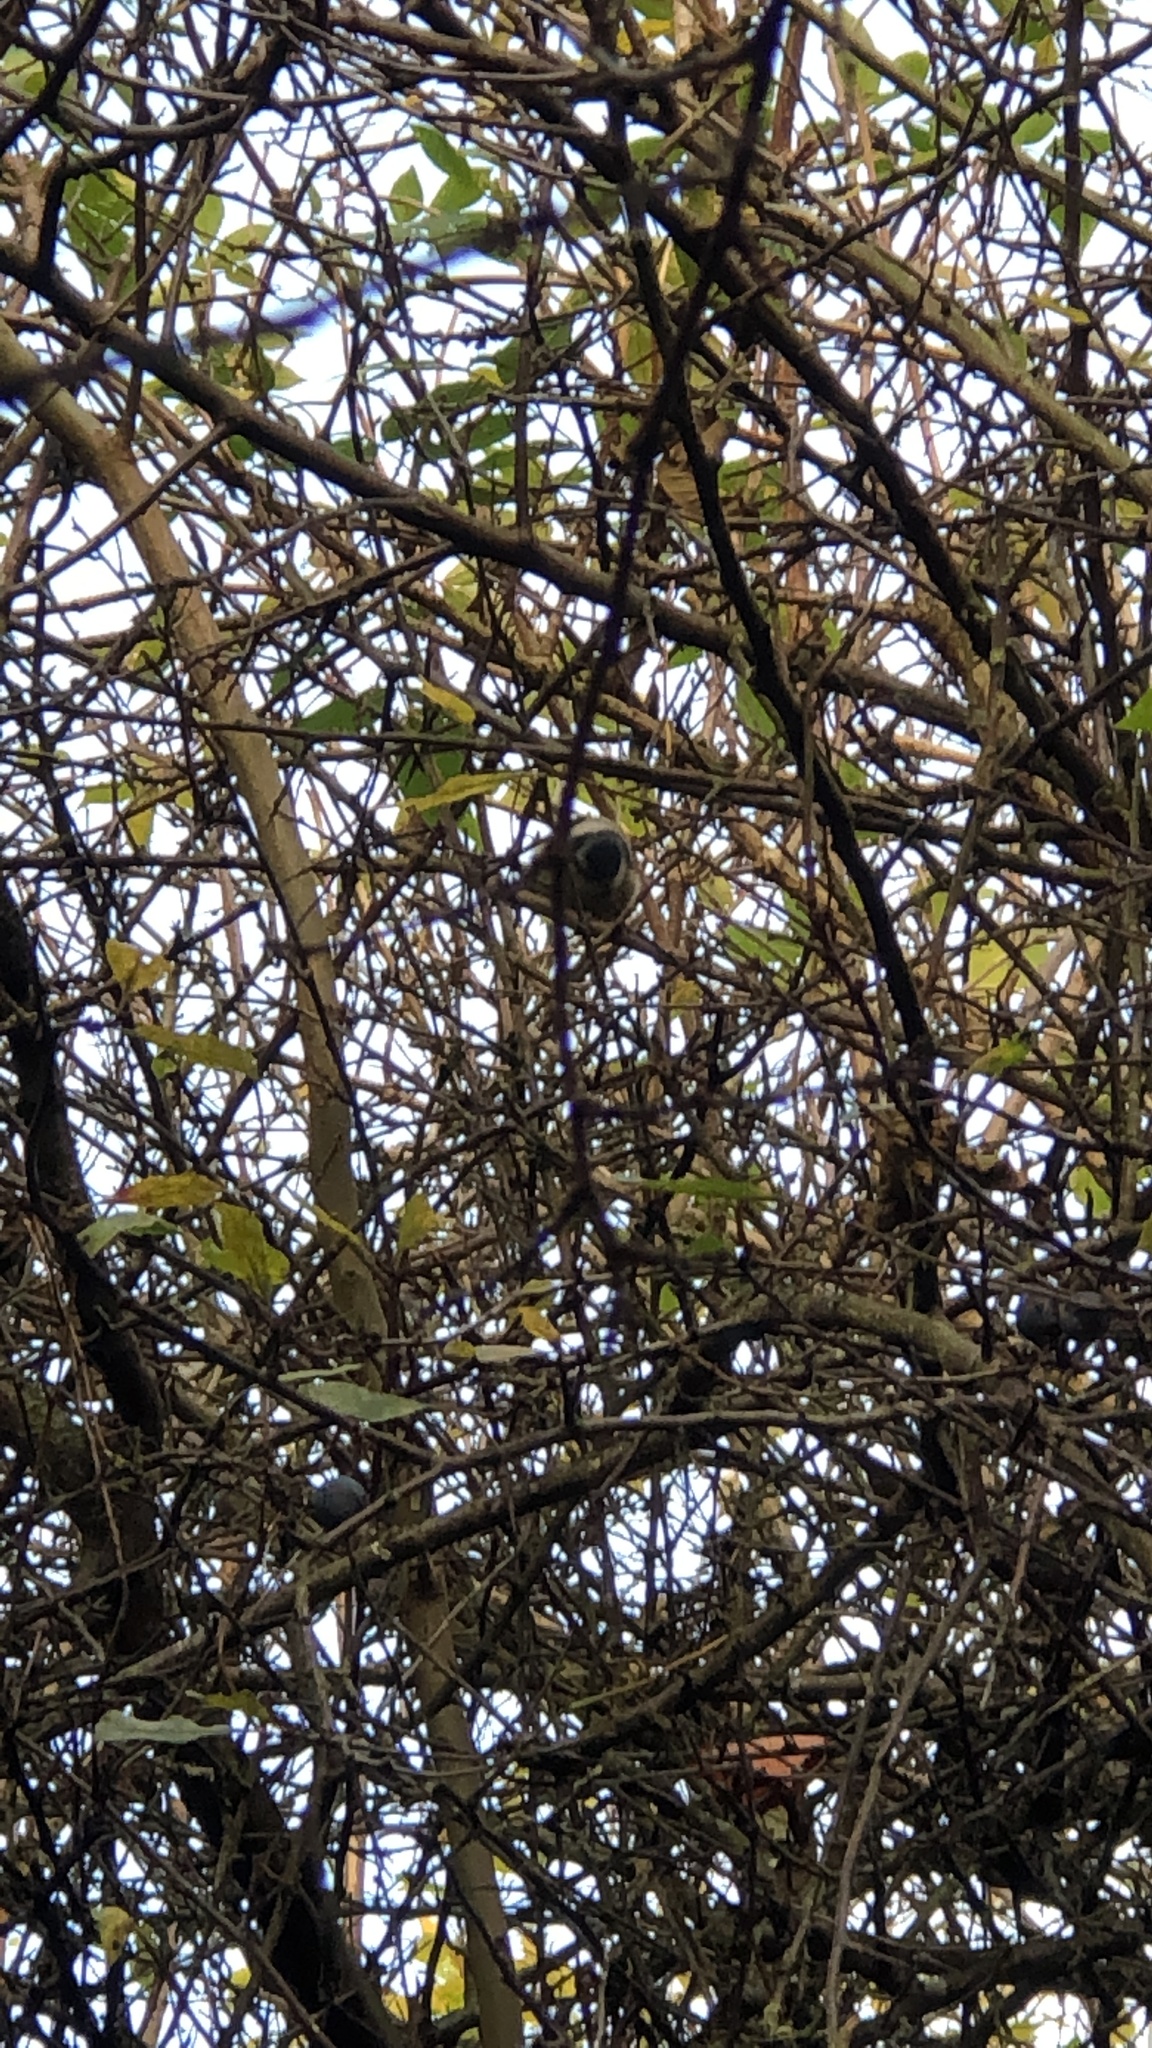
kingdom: Animalia
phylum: Chordata
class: Aves
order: Passeriformes
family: Paridae
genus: Cyanistes
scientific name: Cyanistes caeruleus
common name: Eurasian blue tit
